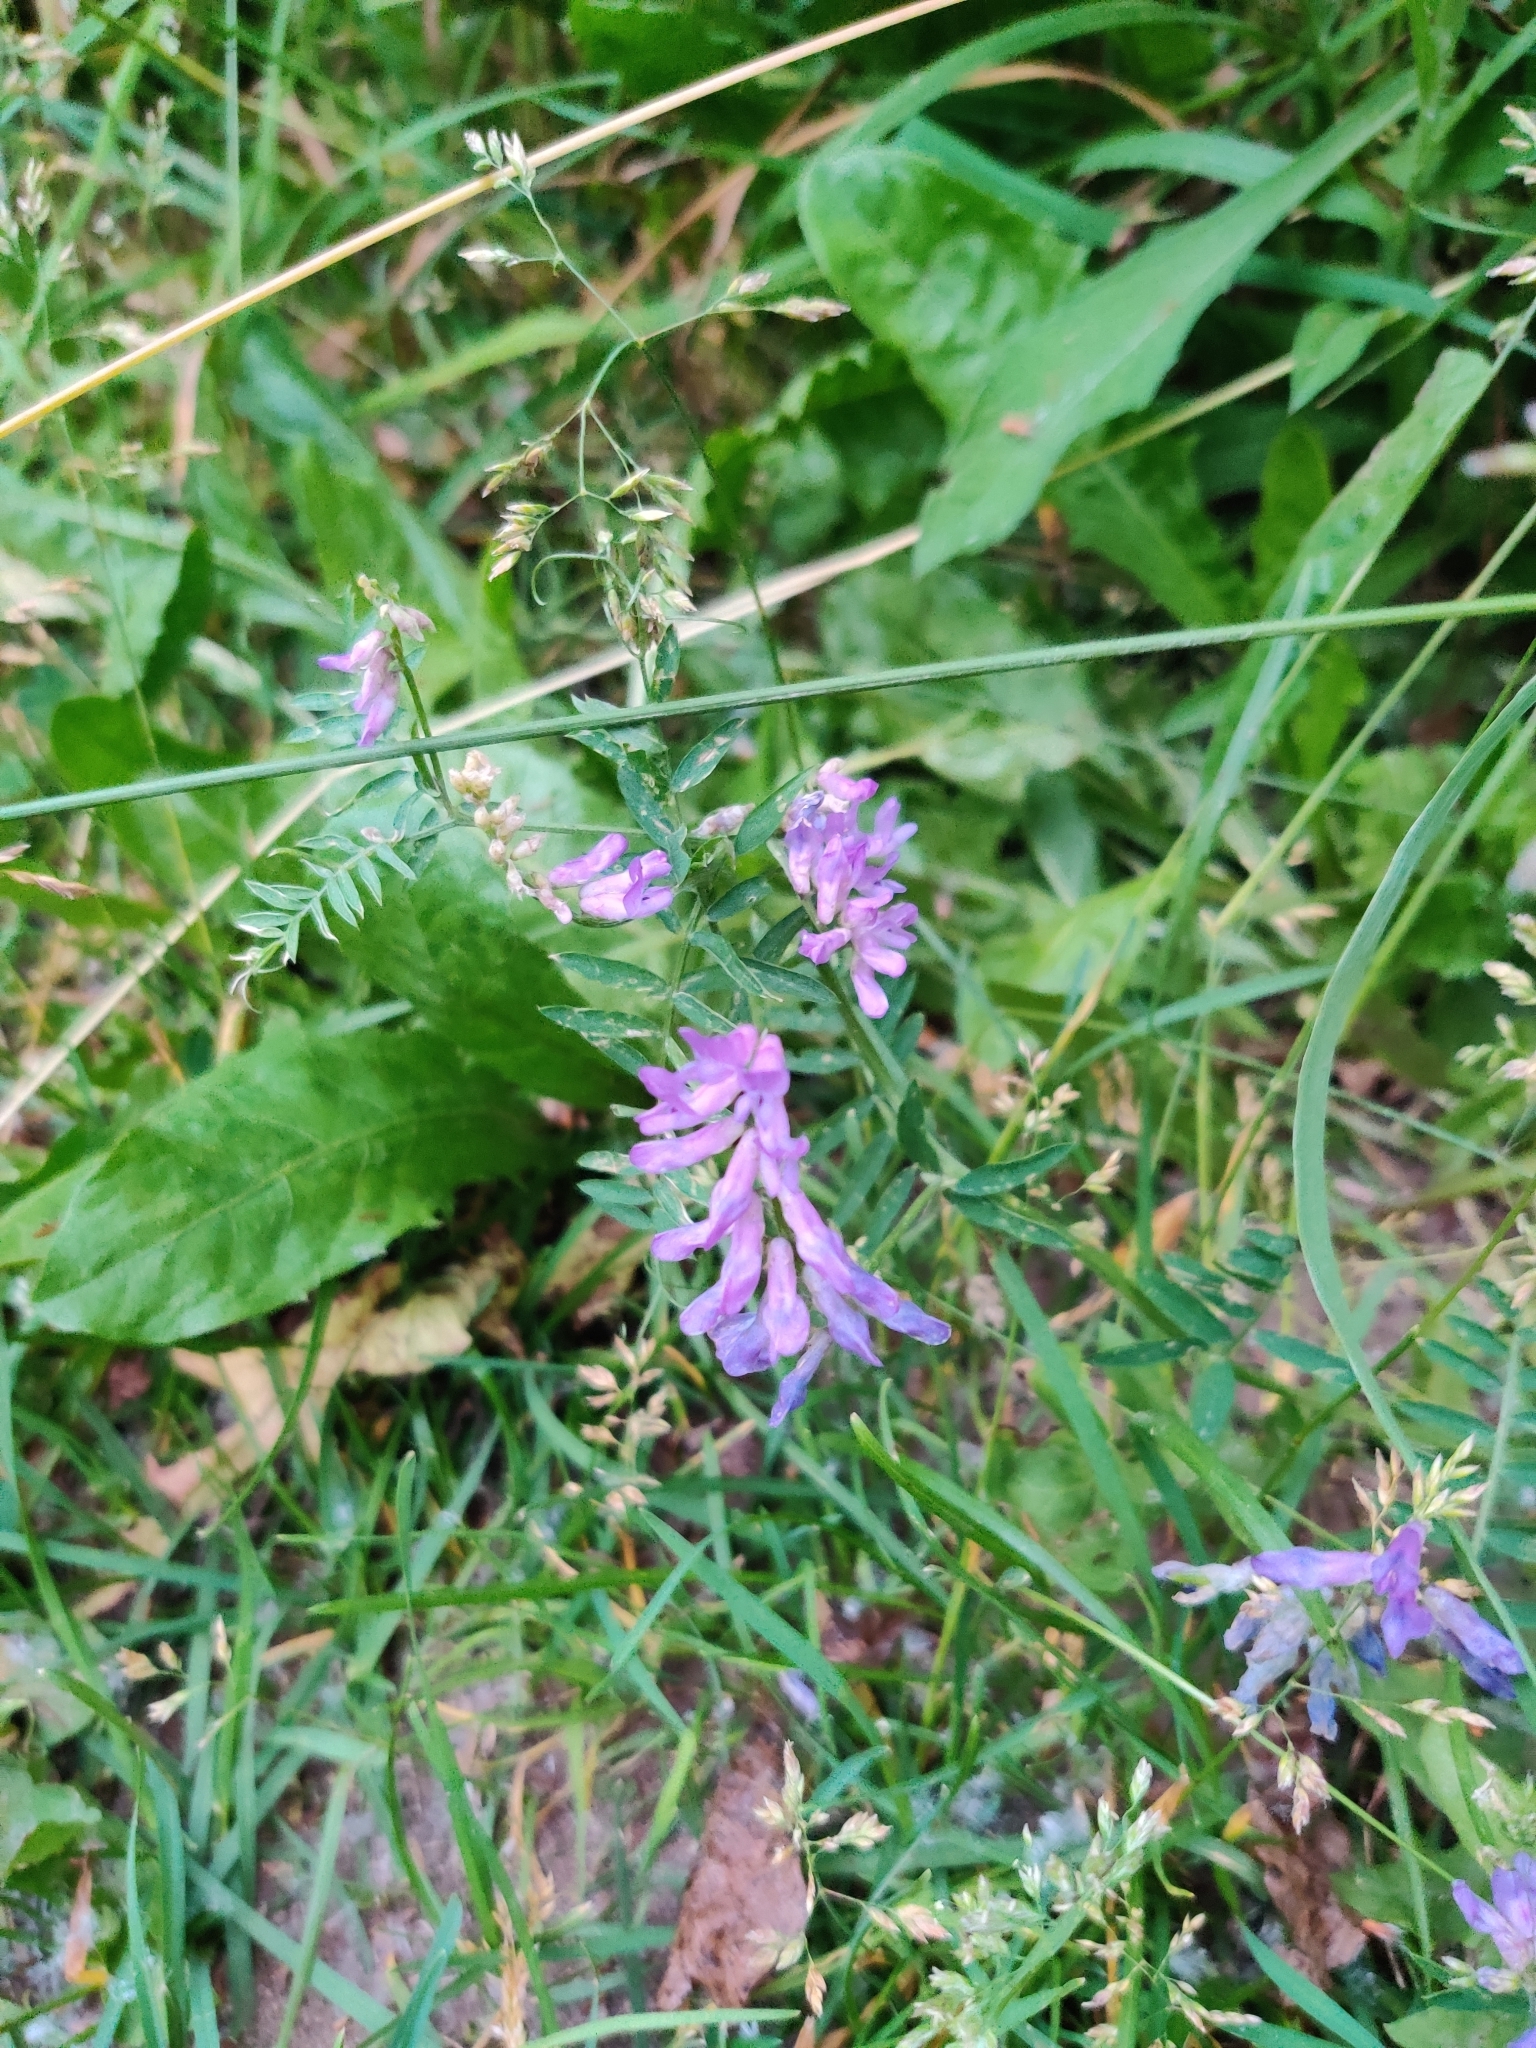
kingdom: Plantae
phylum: Tracheophyta
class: Magnoliopsida
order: Fabales
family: Fabaceae
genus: Vicia
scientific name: Vicia cracca
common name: Bird vetch
